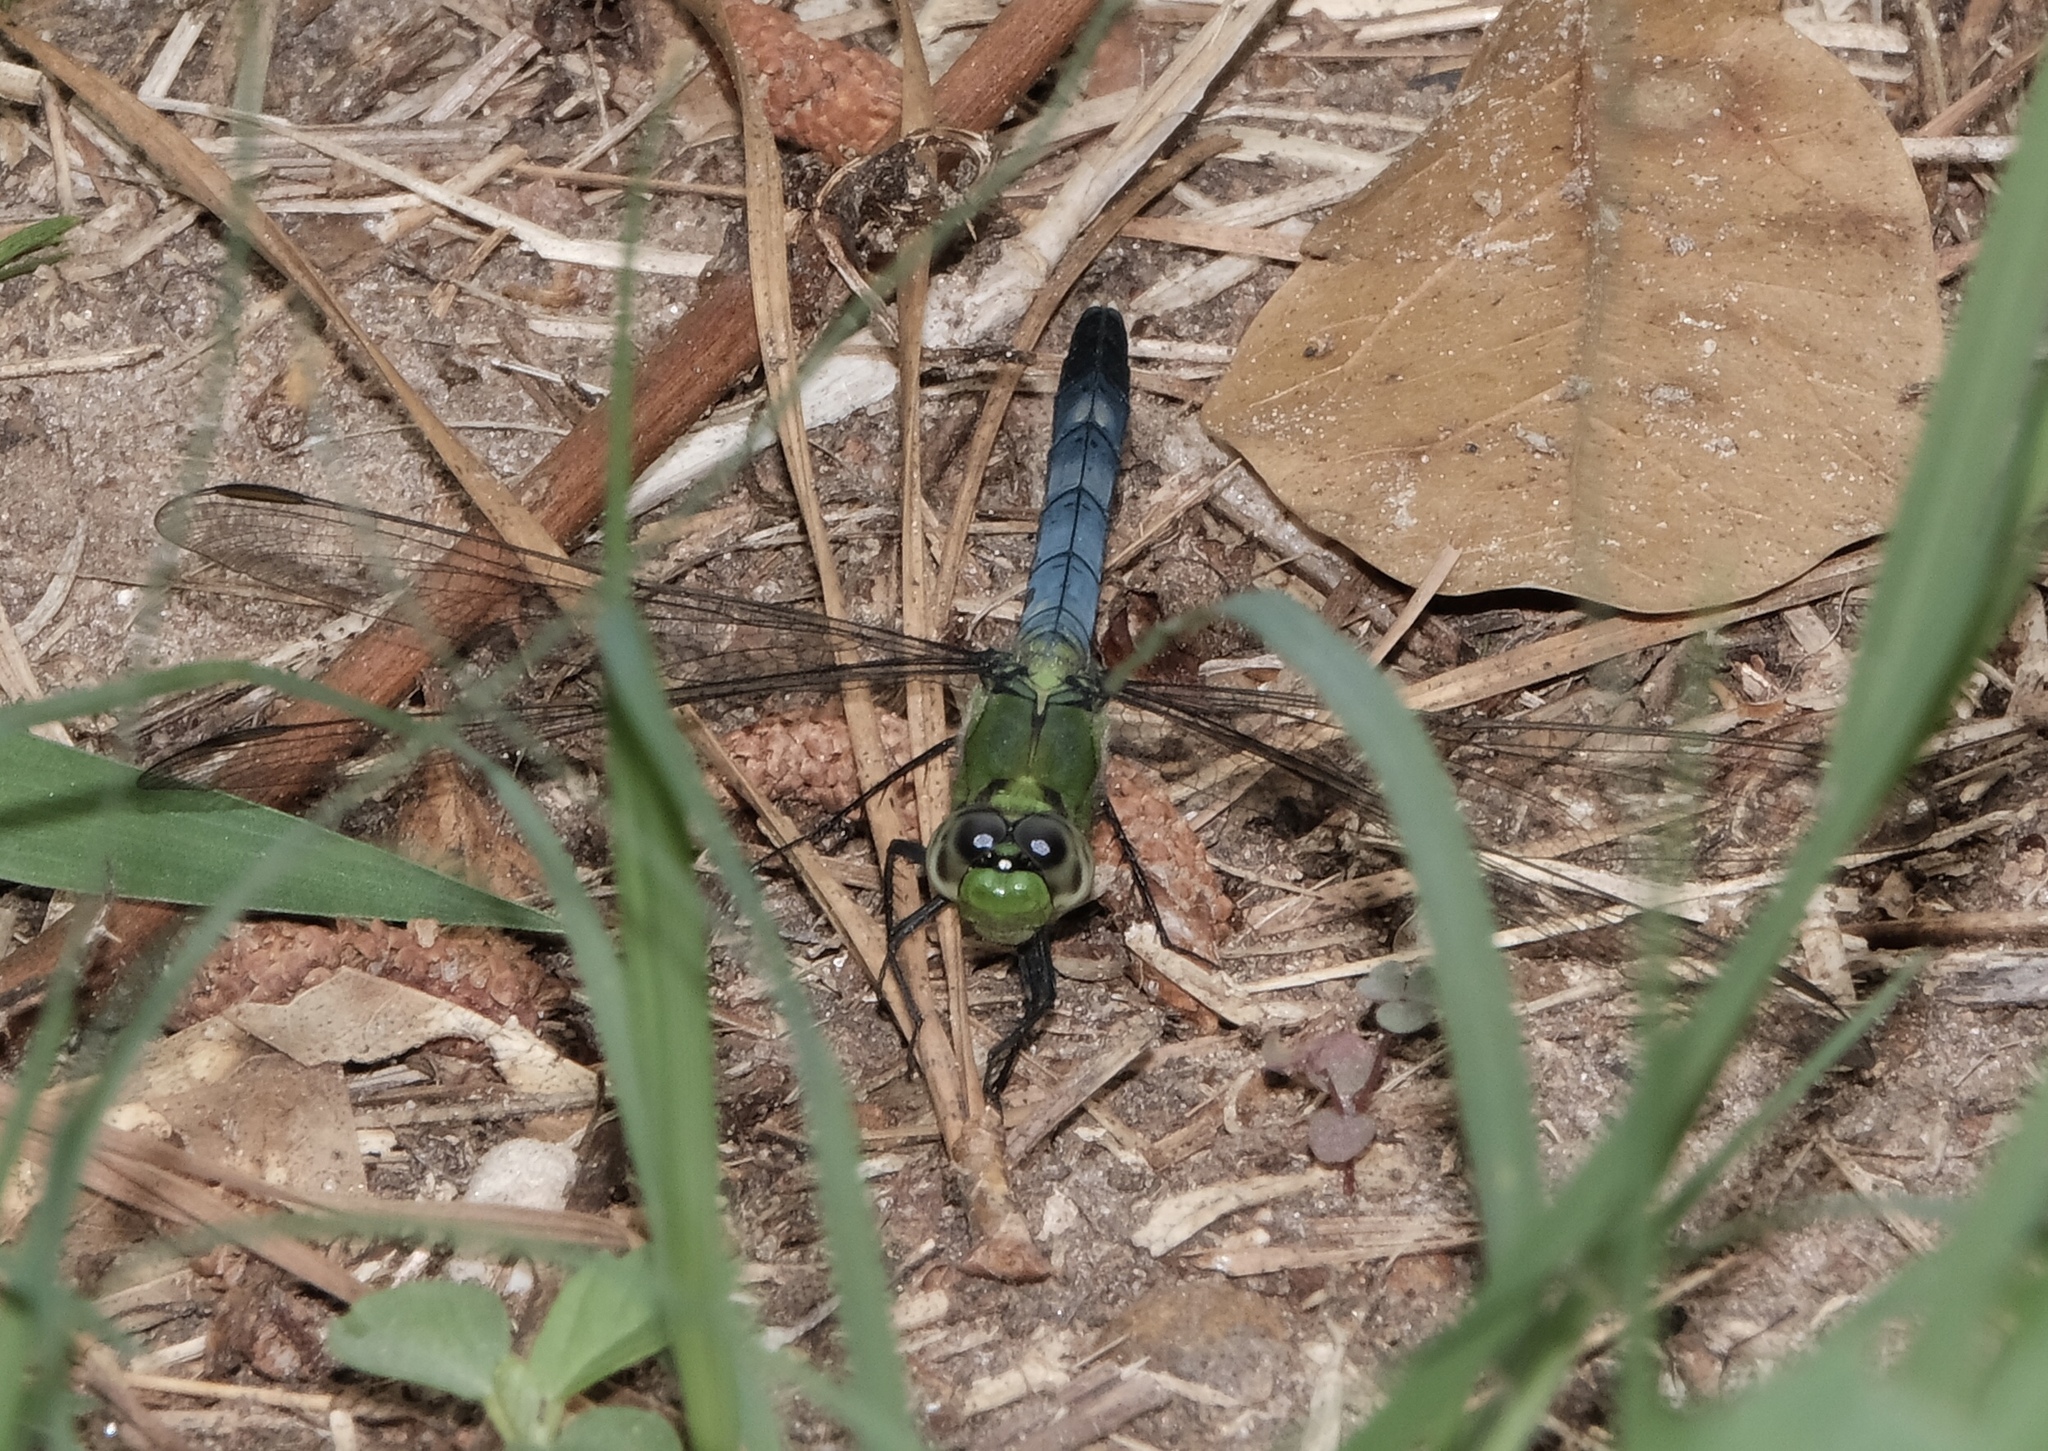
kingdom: Animalia
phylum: Arthropoda
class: Insecta
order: Odonata
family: Libellulidae
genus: Erythemis
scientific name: Erythemis simplicicollis
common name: Eastern pondhawk
